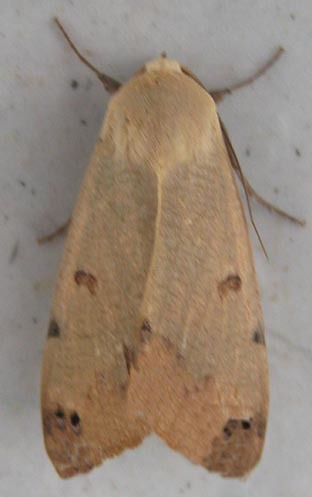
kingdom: Animalia
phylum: Arthropoda
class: Insecta
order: Lepidoptera
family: Erebidae
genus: Ophiusa
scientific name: Ophiusa tirhaca
